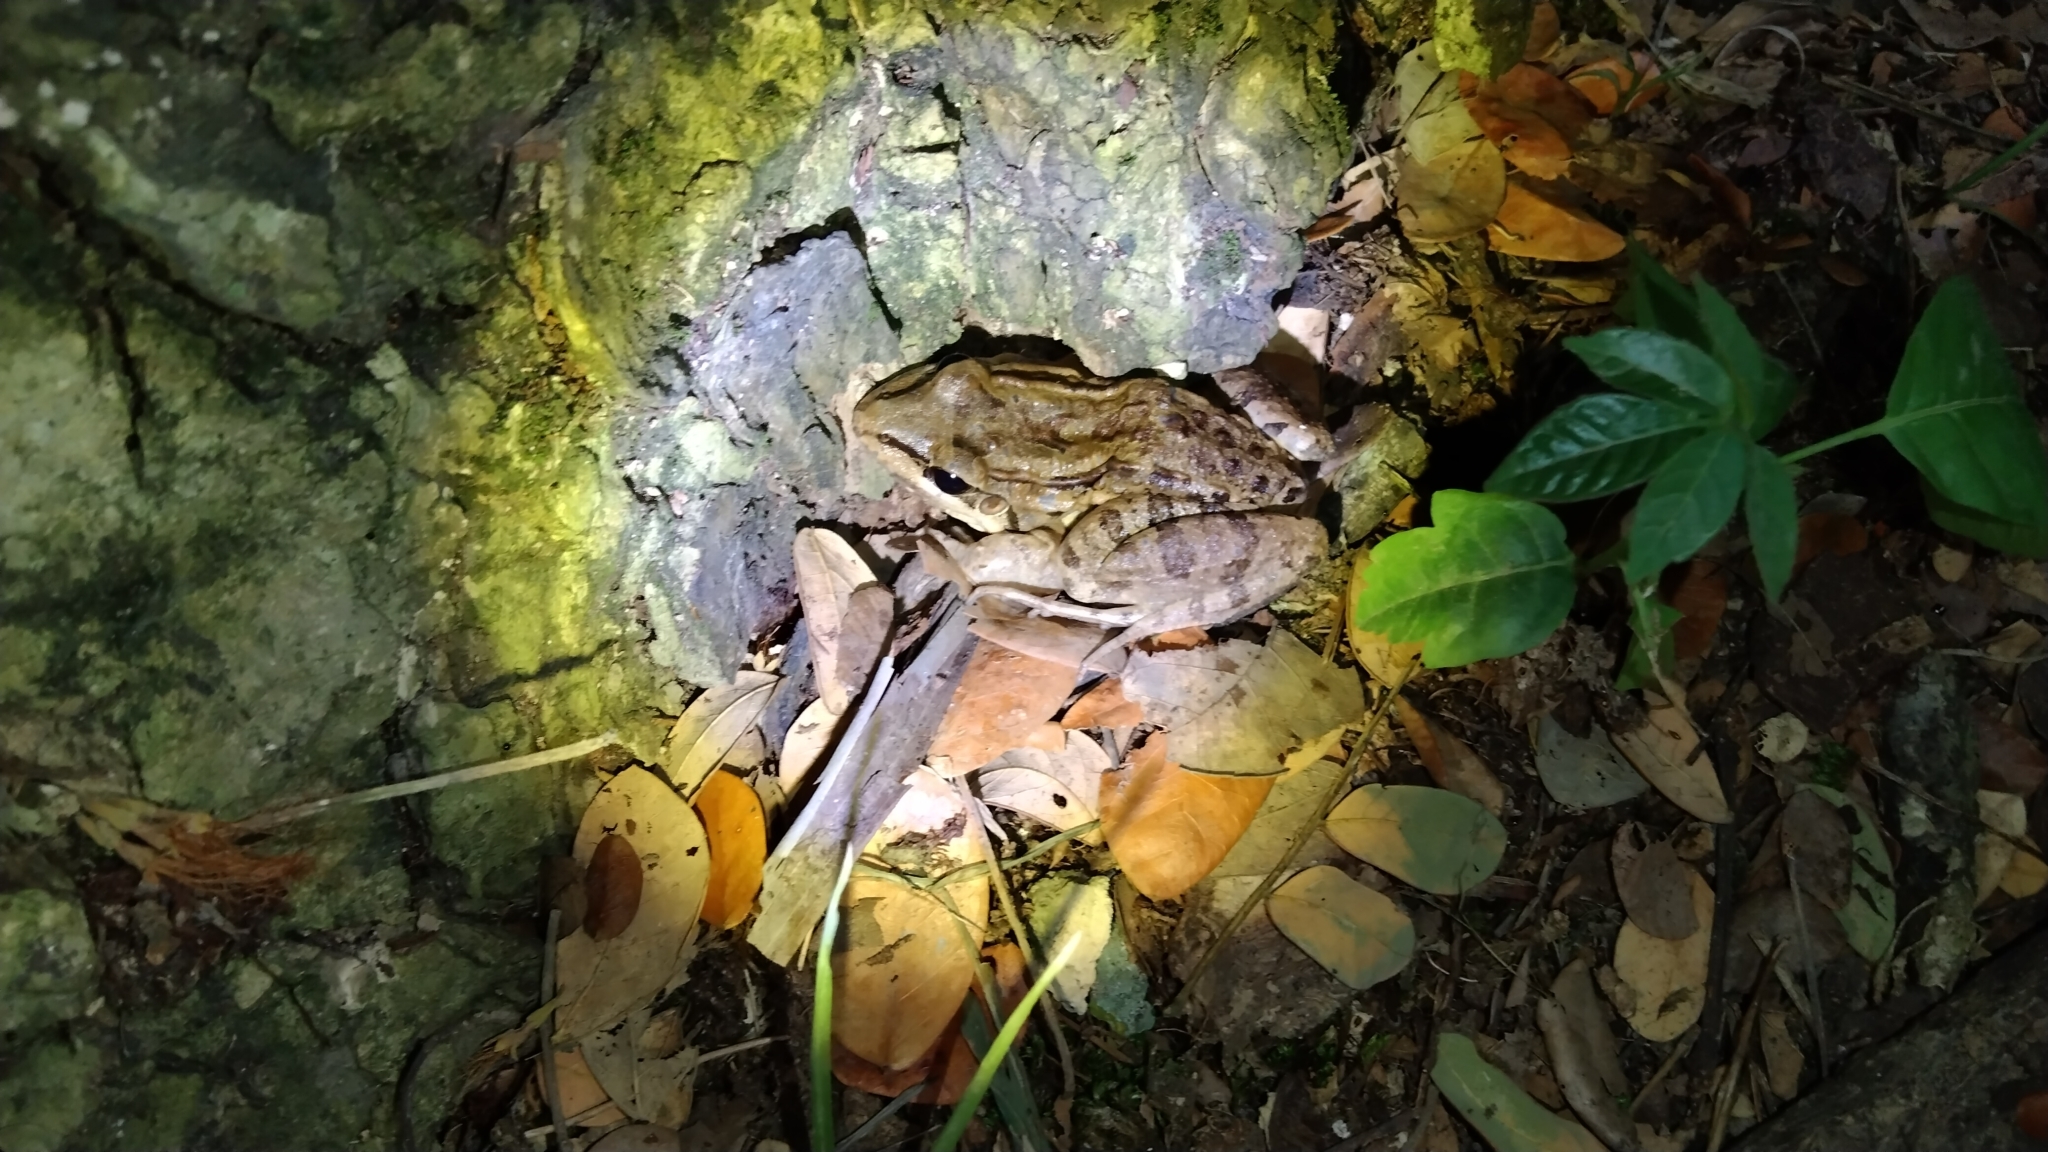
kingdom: Animalia
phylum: Chordata
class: Amphibia
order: Anura
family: Leptodactylidae
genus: Leptodactylus
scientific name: Leptodactylus insularum
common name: San miguel island frog
